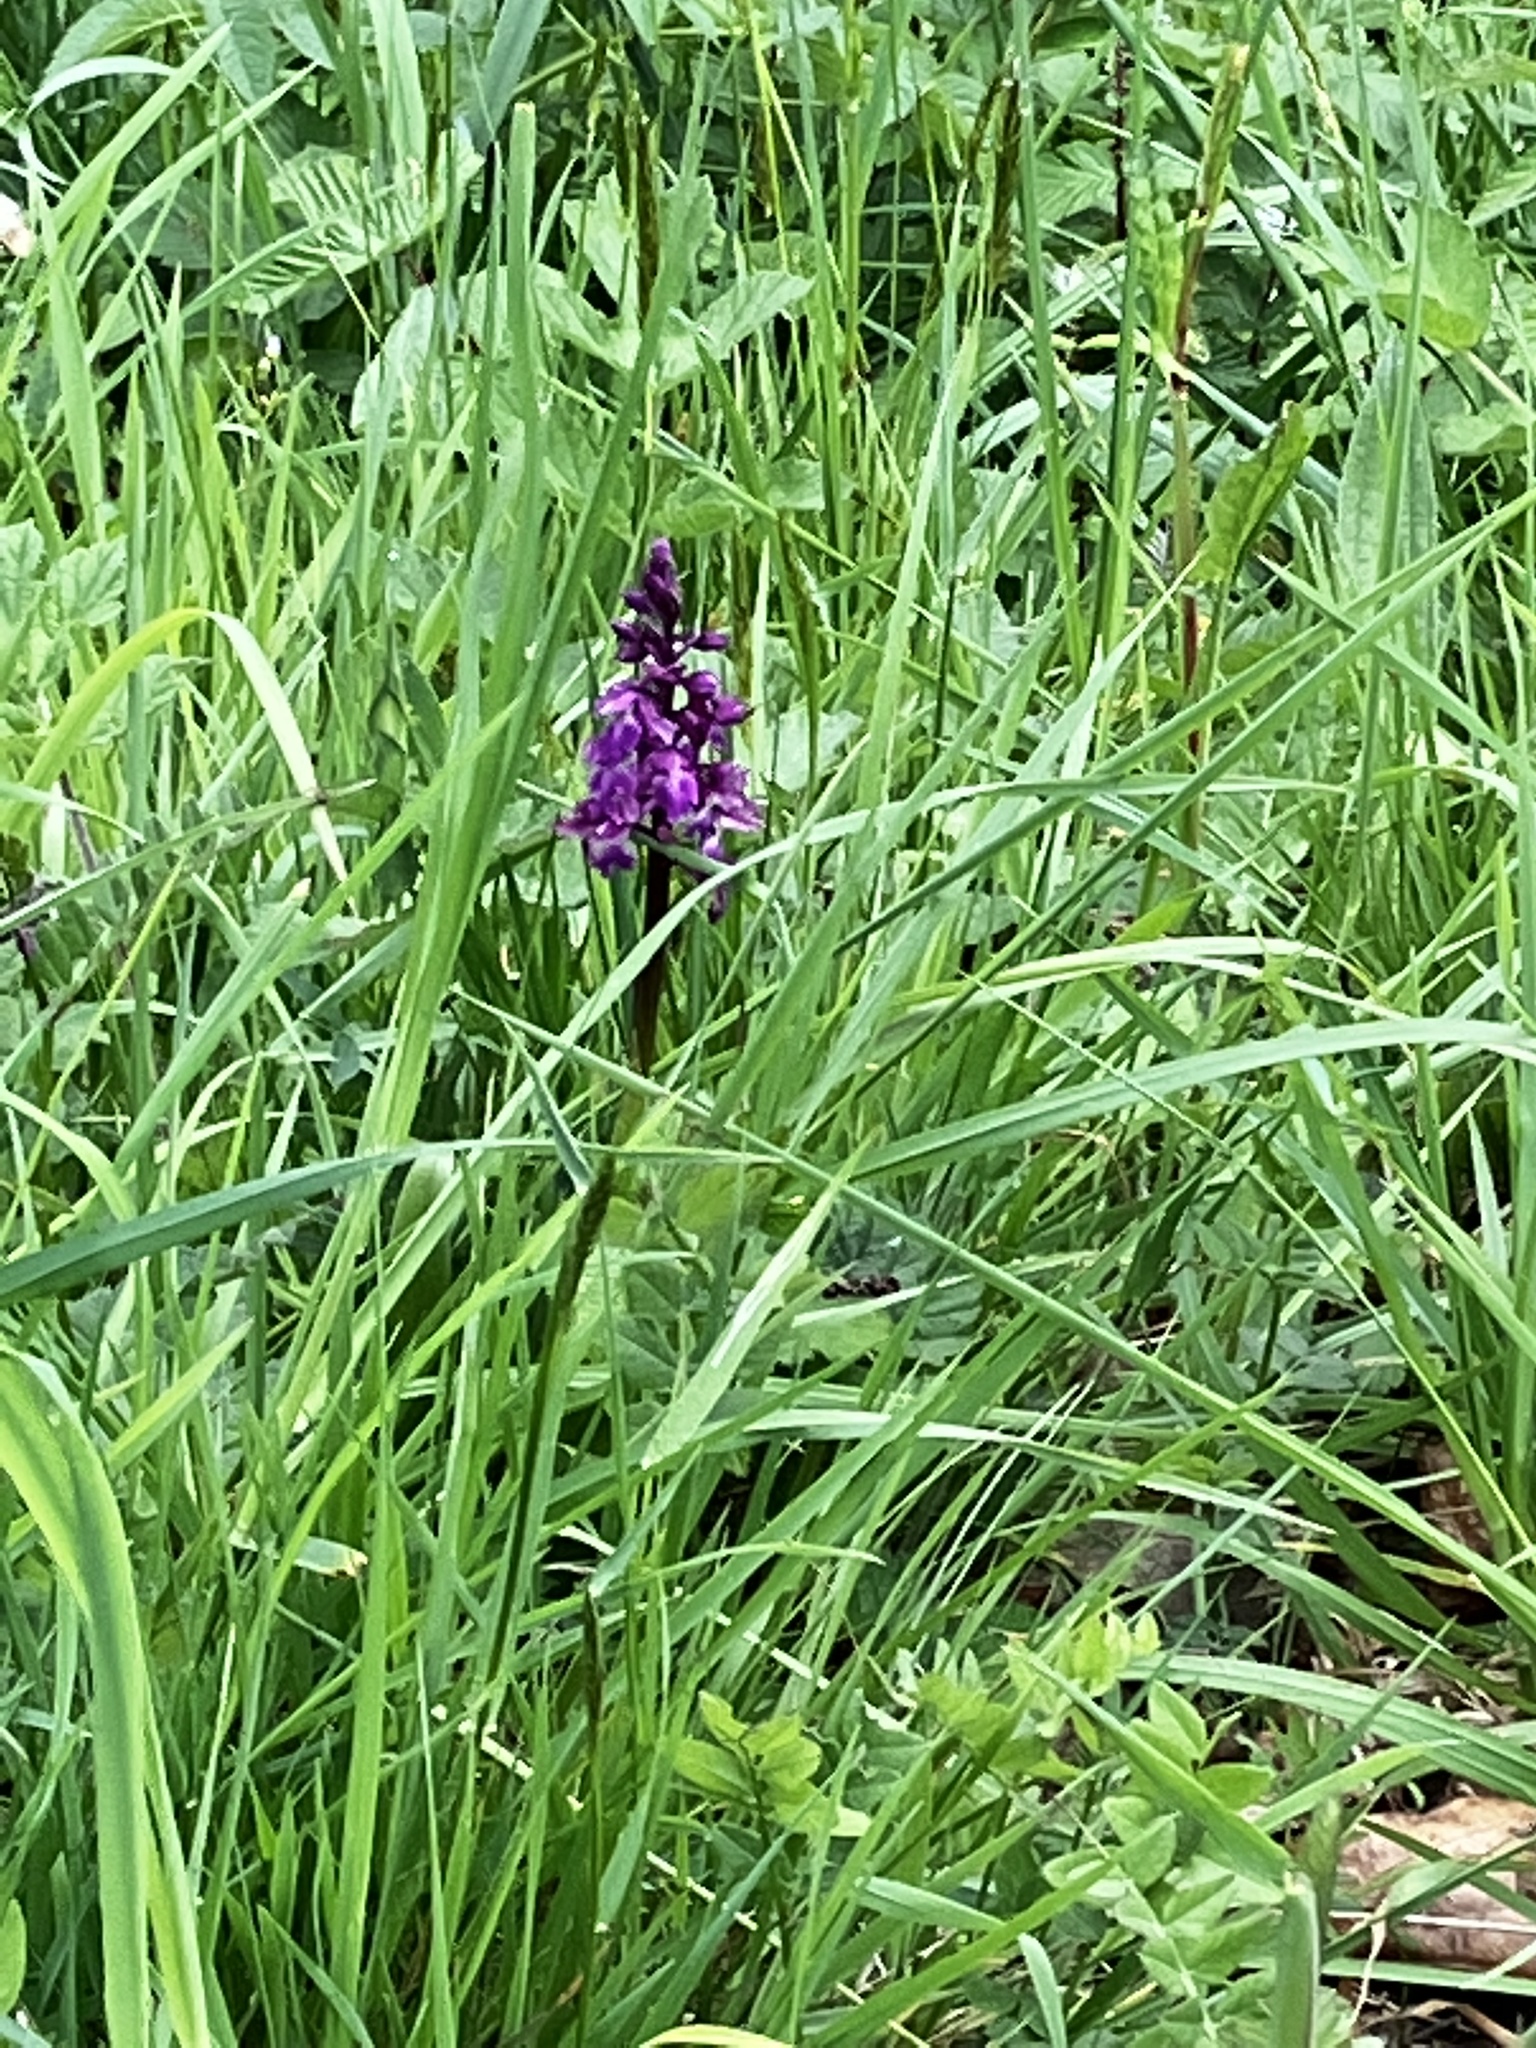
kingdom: Plantae
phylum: Tracheophyta
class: Liliopsida
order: Asparagales
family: Orchidaceae
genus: Orchis
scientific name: Orchis mascula
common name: Early-purple orchid
